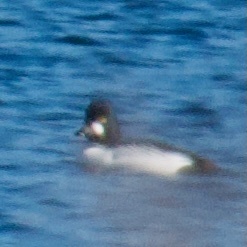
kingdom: Animalia
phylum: Chordata
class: Aves
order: Anseriformes
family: Anatidae
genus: Bucephala
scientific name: Bucephala clangula
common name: Common goldeneye
